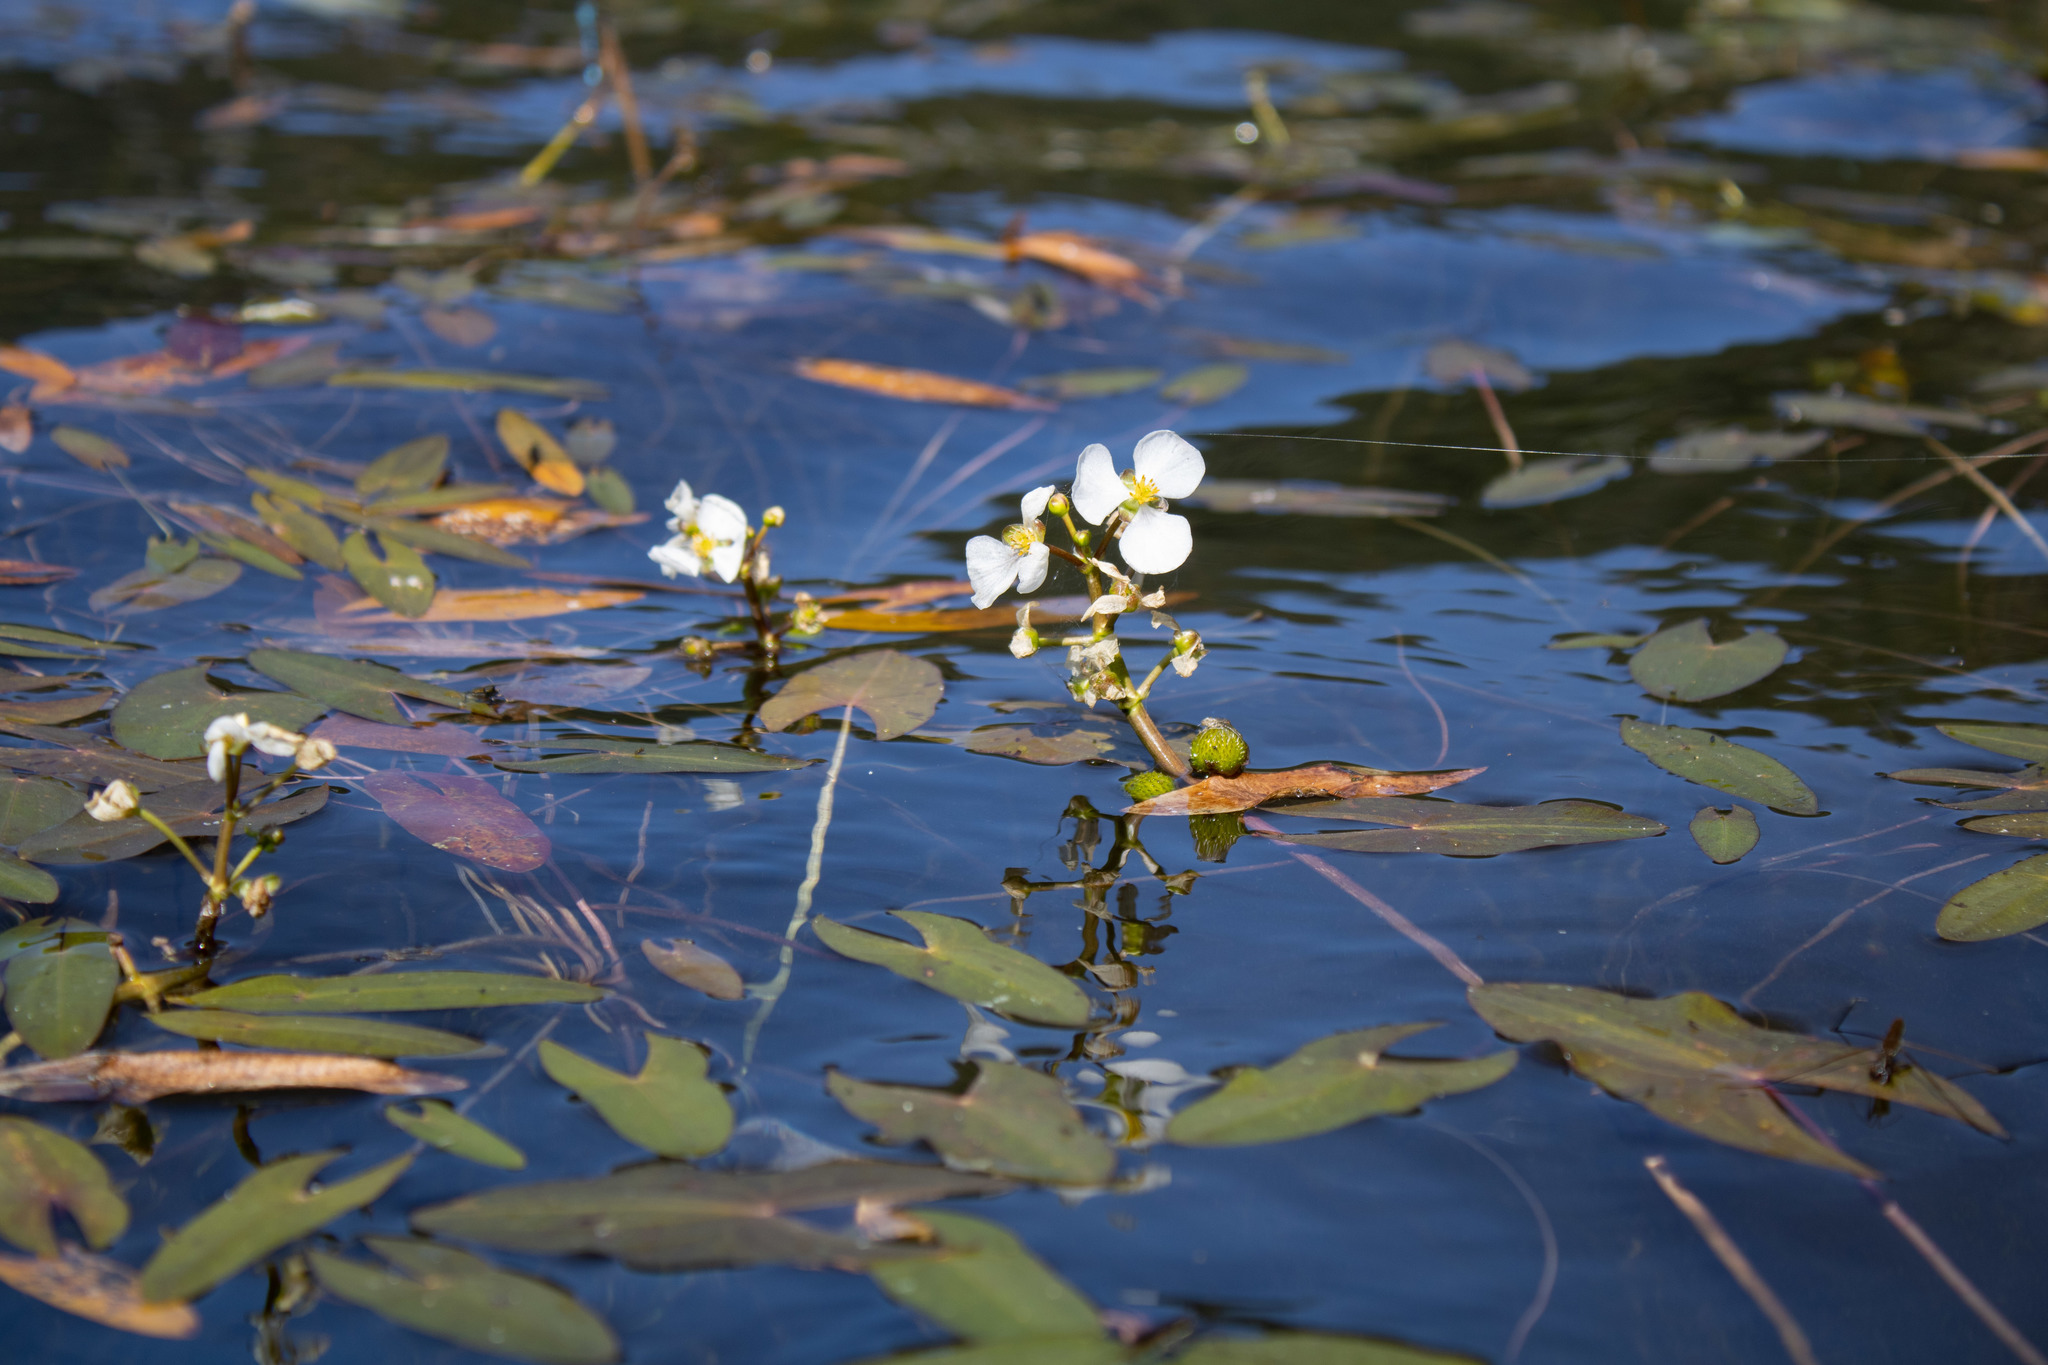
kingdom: Plantae
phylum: Tracheophyta
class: Liliopsida
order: Alismatales
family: Alismataceae
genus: Sagittaria
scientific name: Sagittaria cuneata
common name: Northern arrowhead
